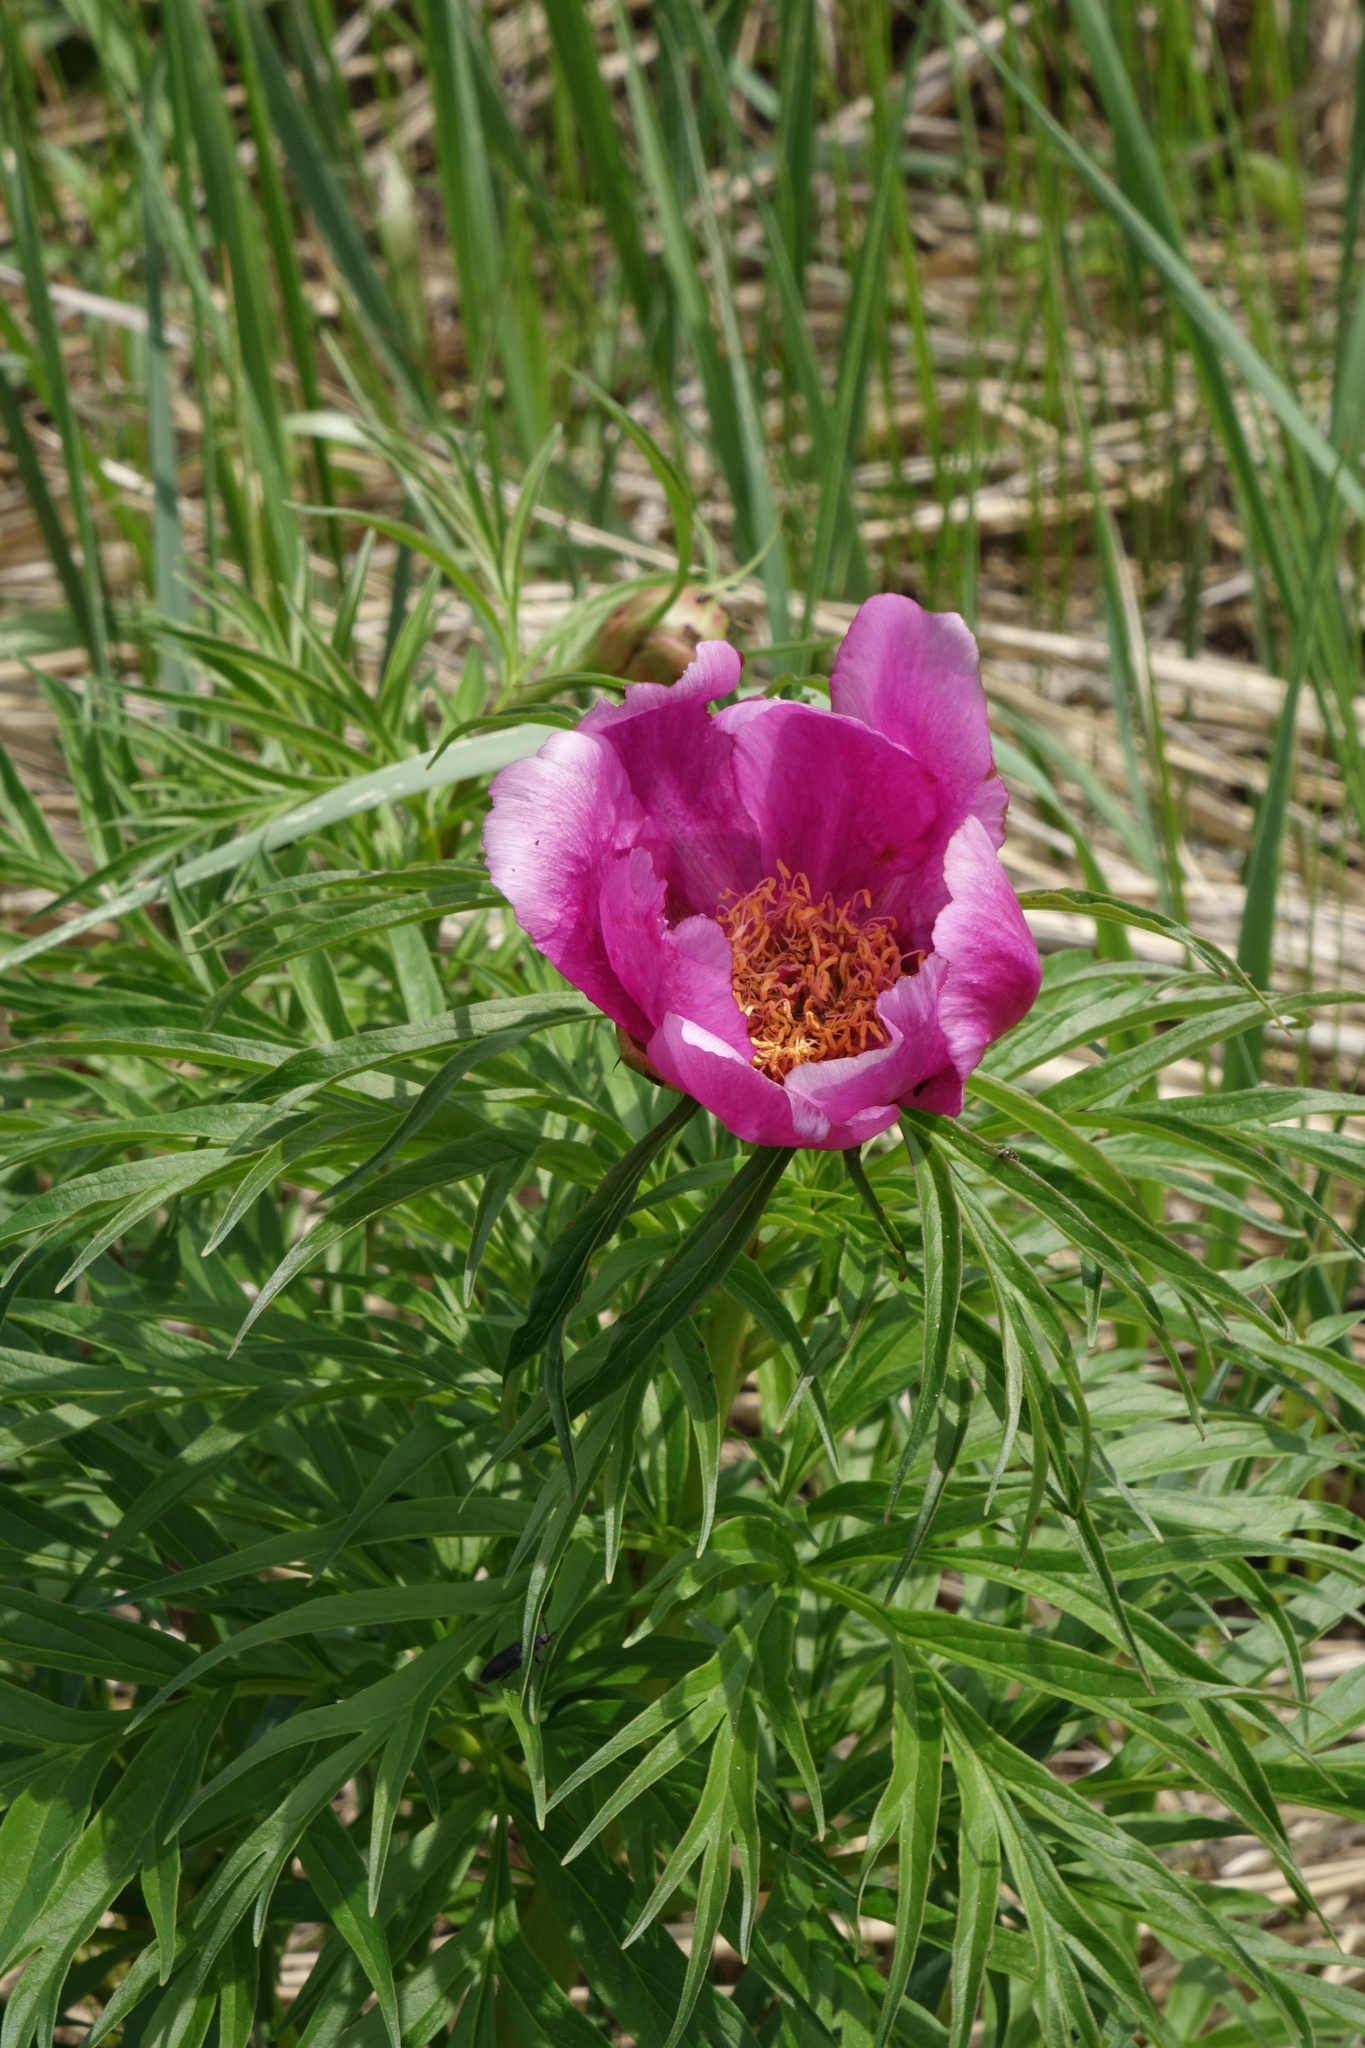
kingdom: Plantae
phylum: Tracheophyta
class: Magnoliopsida
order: Saxifragales
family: Paeoniaceae
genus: Paeonia
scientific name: Paeonia anomala
